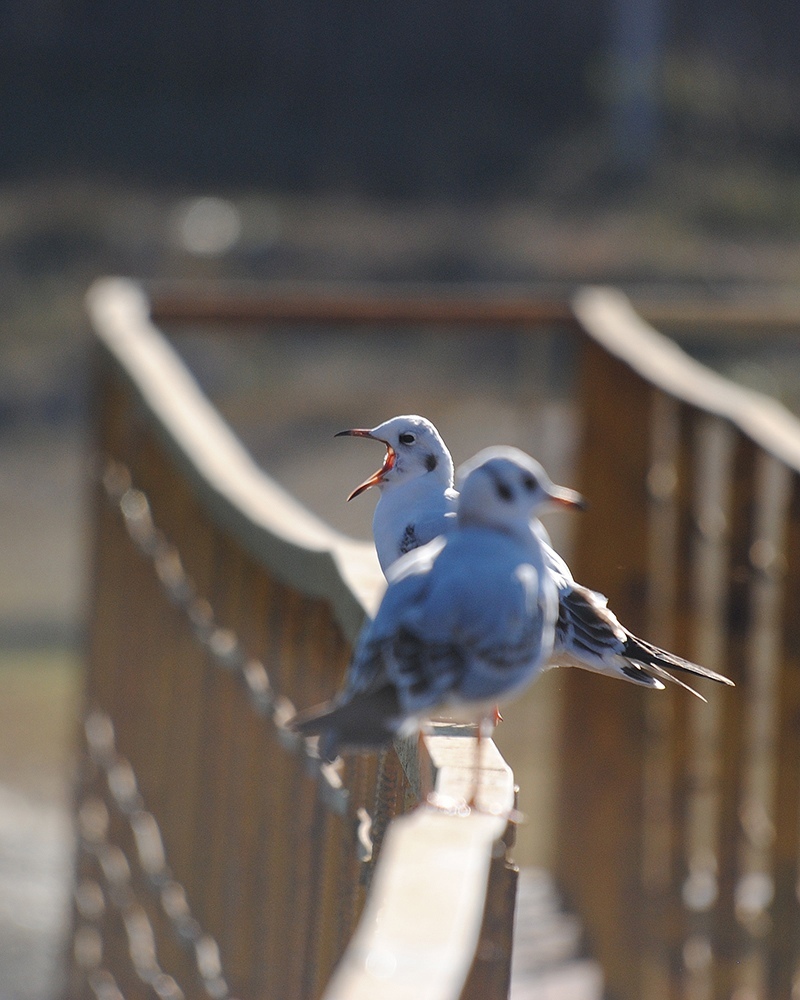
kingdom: Animalia
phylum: Chordata
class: Aves
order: Charadriiformes
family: Laridae
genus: Chroicocephalus
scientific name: Chroicocephalus ridibundus
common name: Black-headed gull
